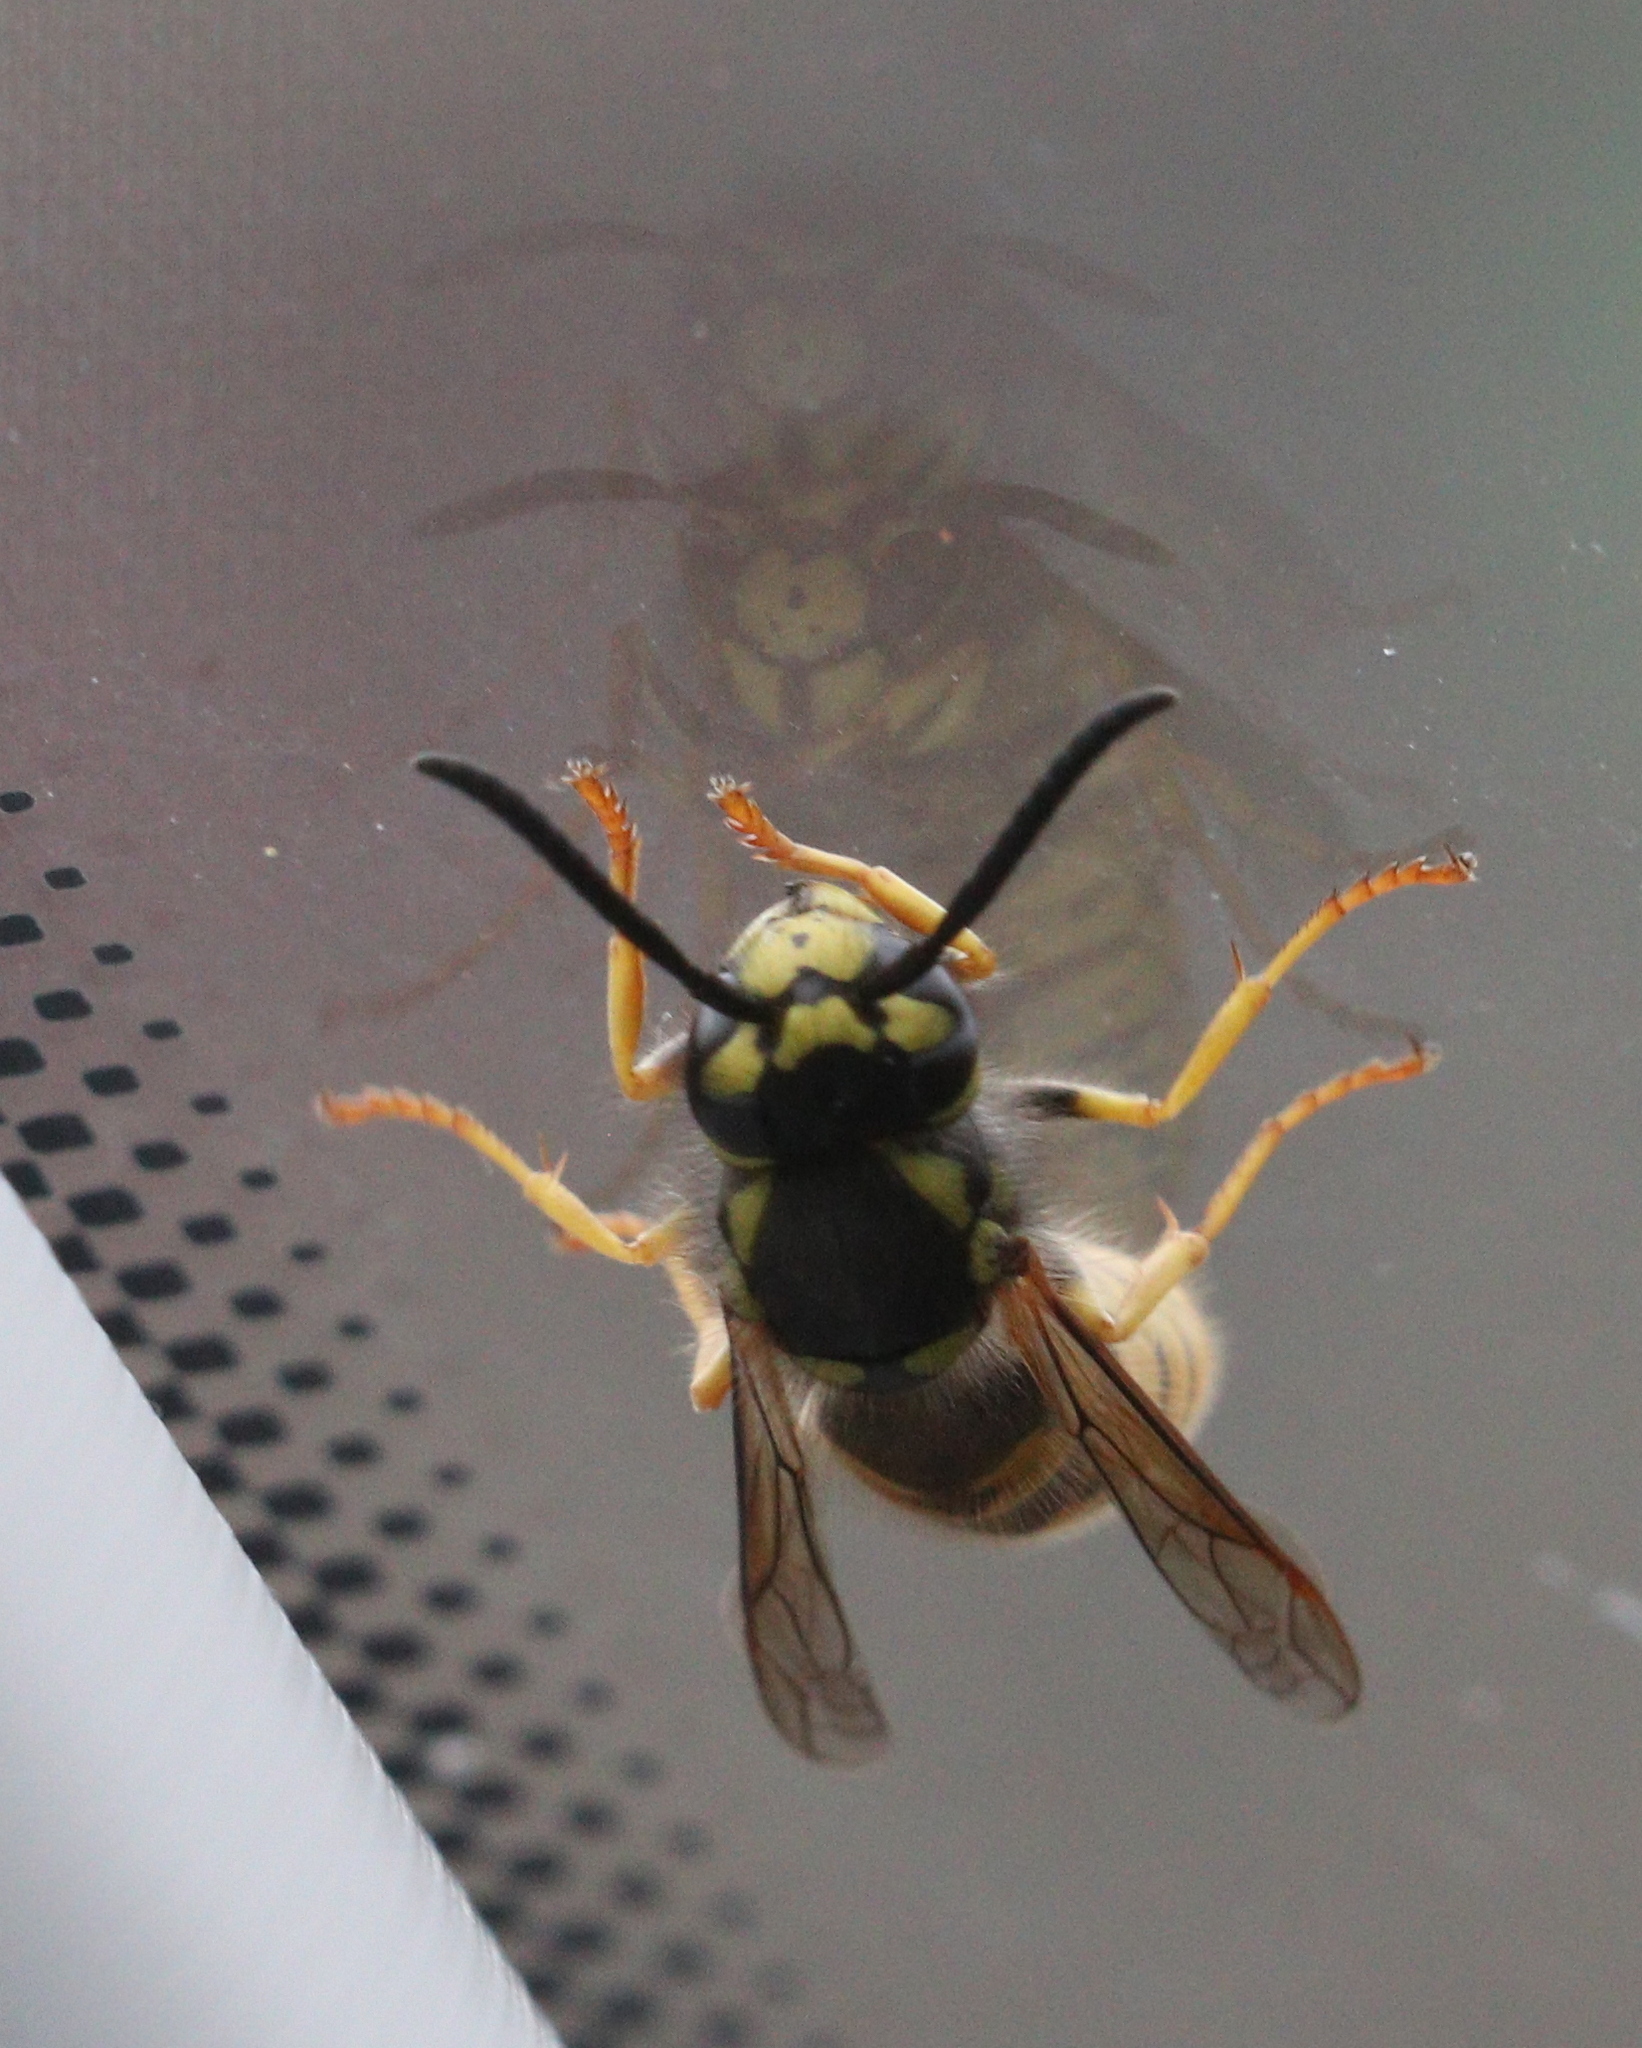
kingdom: Animalia
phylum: Arthropoda
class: Insecta
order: Hymenoptera
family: Vespidae
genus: Vespula
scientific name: Vespula germanica
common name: German wasp
